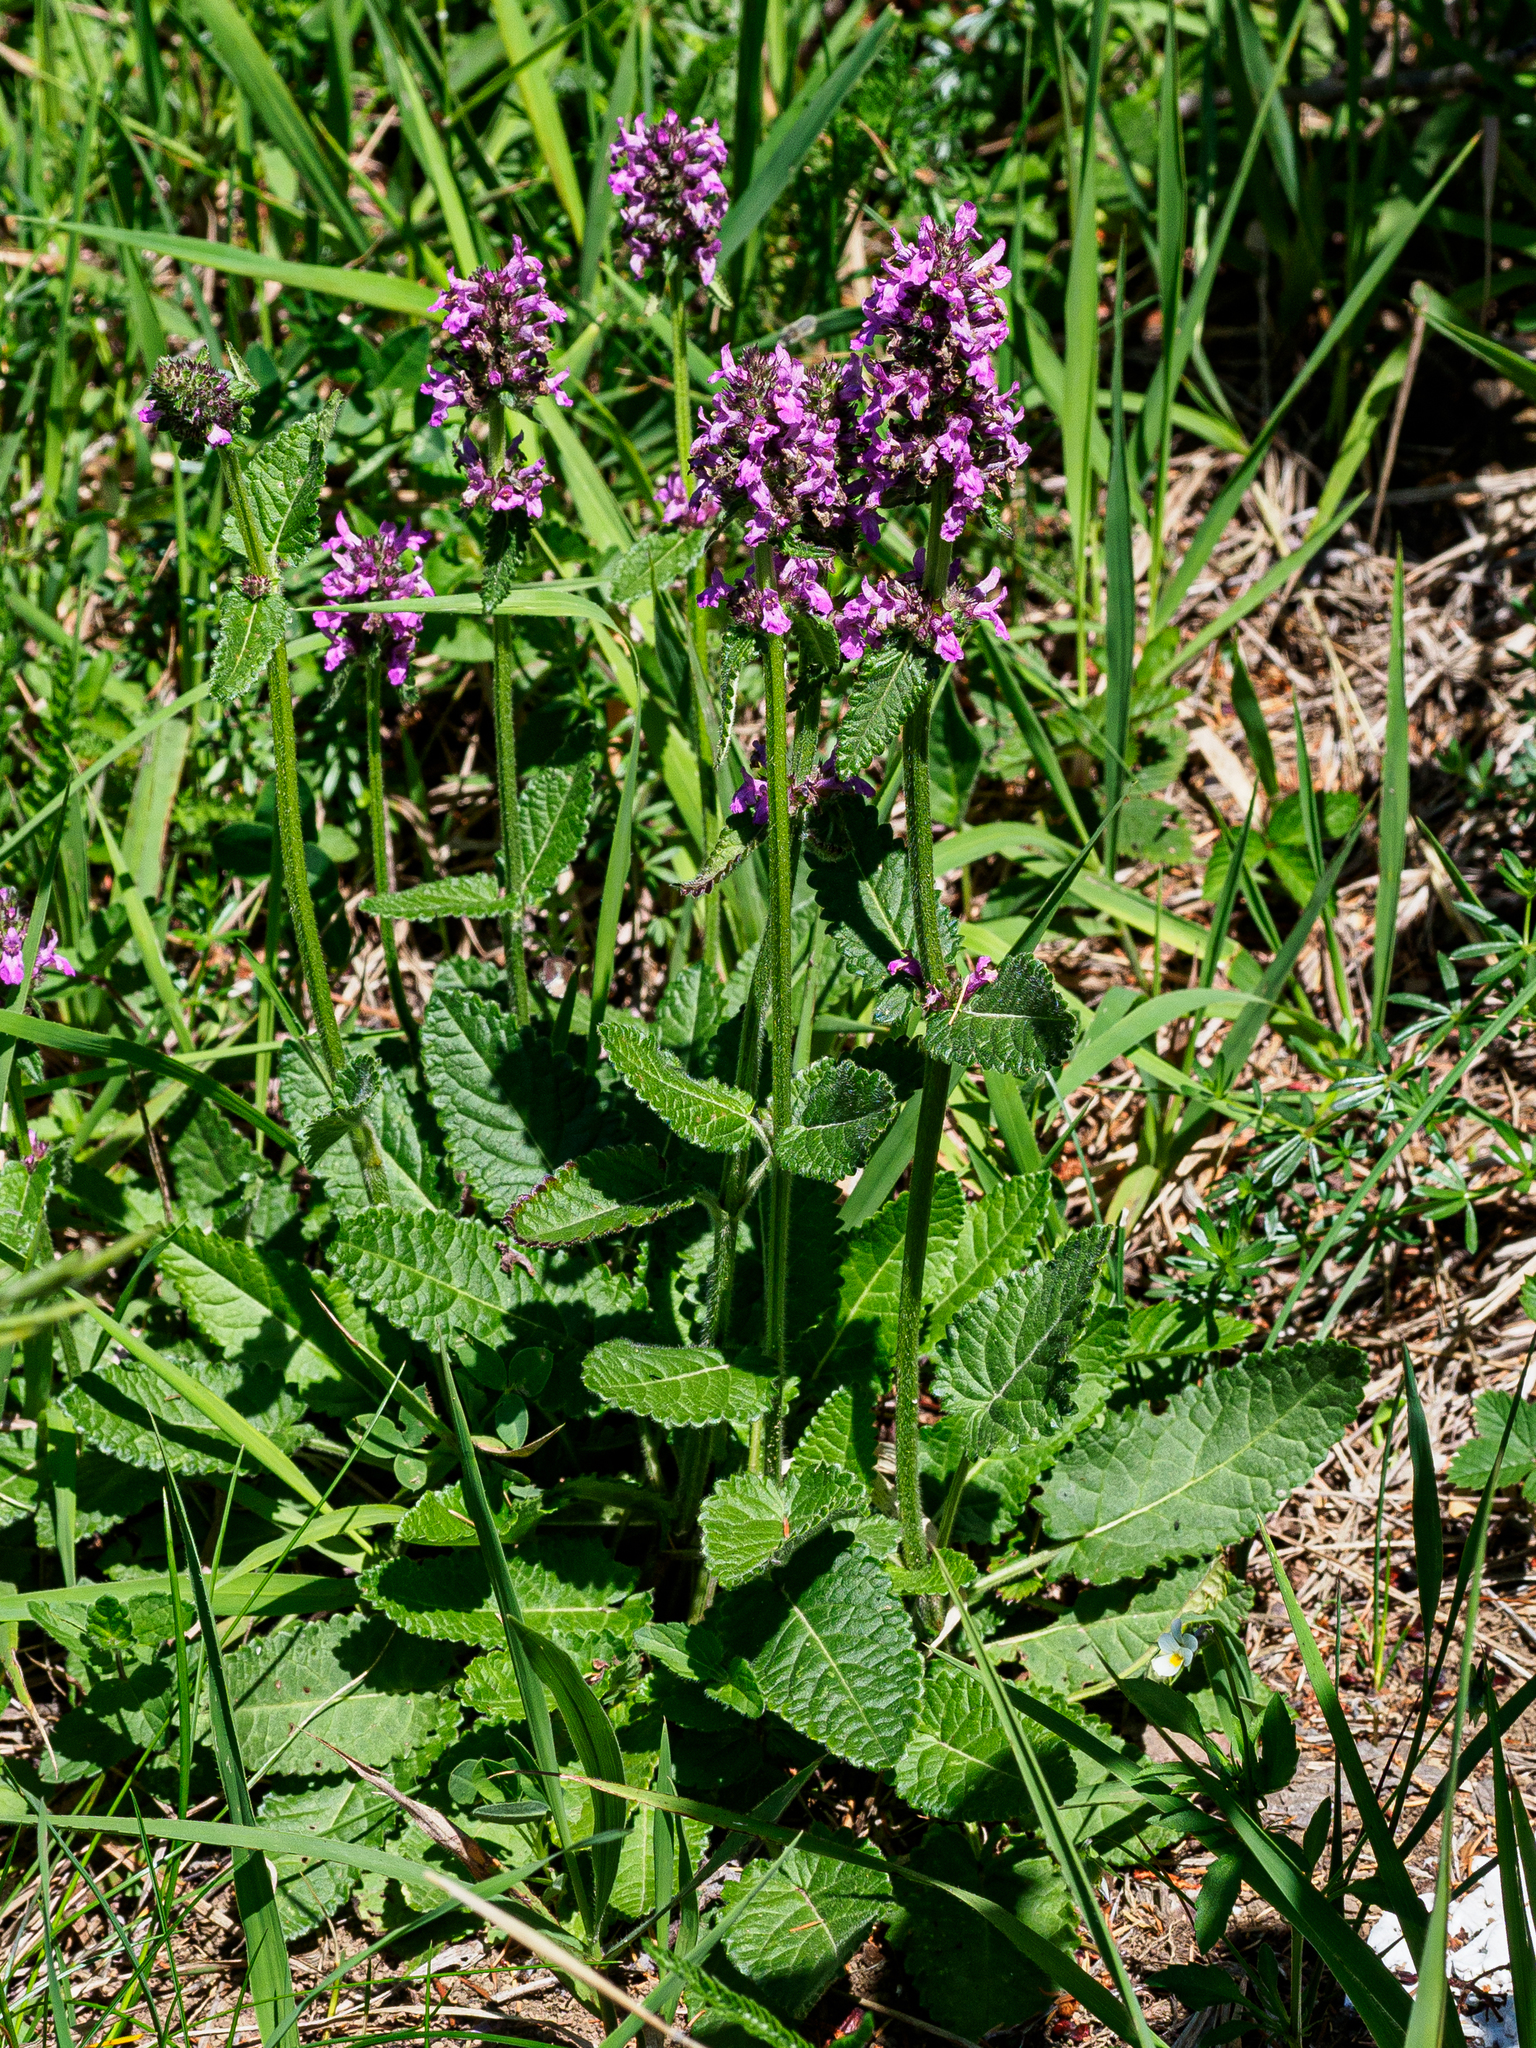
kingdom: Plantae
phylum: Tracheophyta
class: Magnoliopsida
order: Lamiales
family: Lamiaceae
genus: Betonica
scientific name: Betonica officinalis
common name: Bishop's-wort
